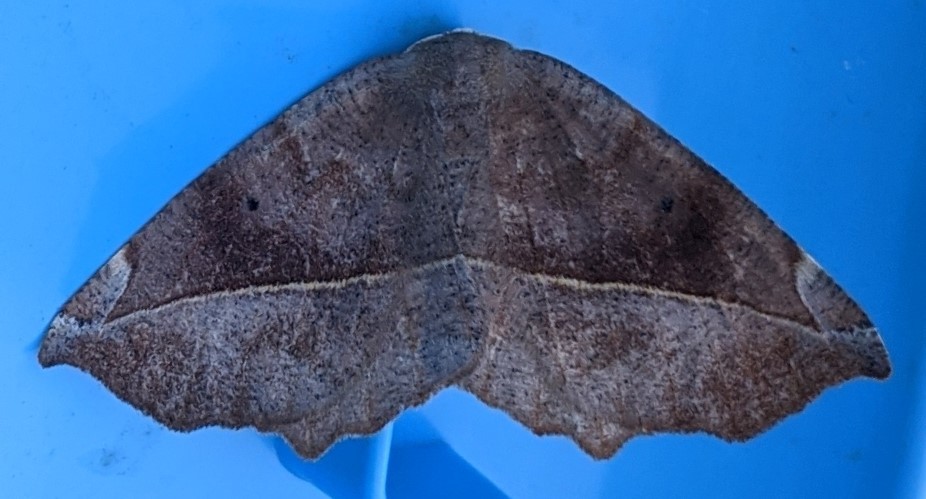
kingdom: Animalia
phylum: Arthropoda
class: Insecta
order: Lepidoptera
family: Geometridae
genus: Eutrapela
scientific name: Eutrapela clemataria
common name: Curved-toothed geometer
